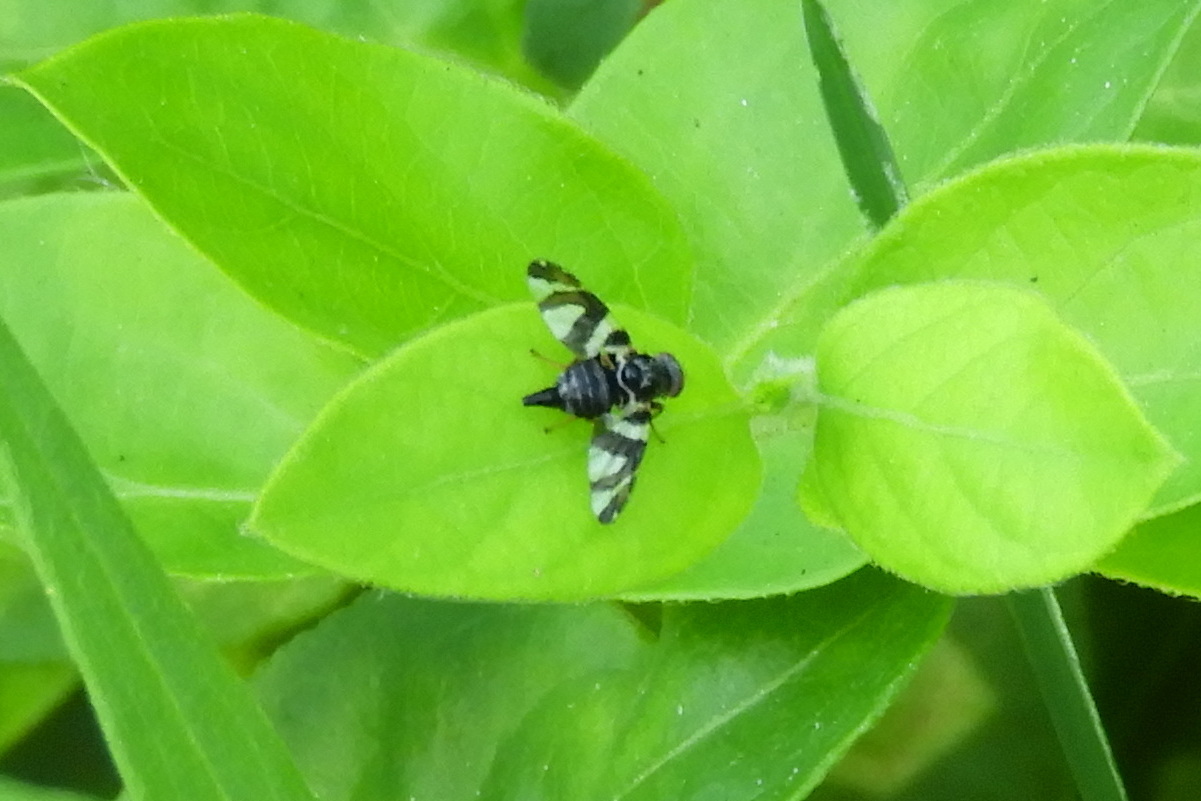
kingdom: Animalia
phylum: Arthropoda
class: Insecta
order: Diptera
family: Tephritidae
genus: Procecidochares
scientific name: Procecidochares atra
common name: Goldenrod brussels sprout gall fly
